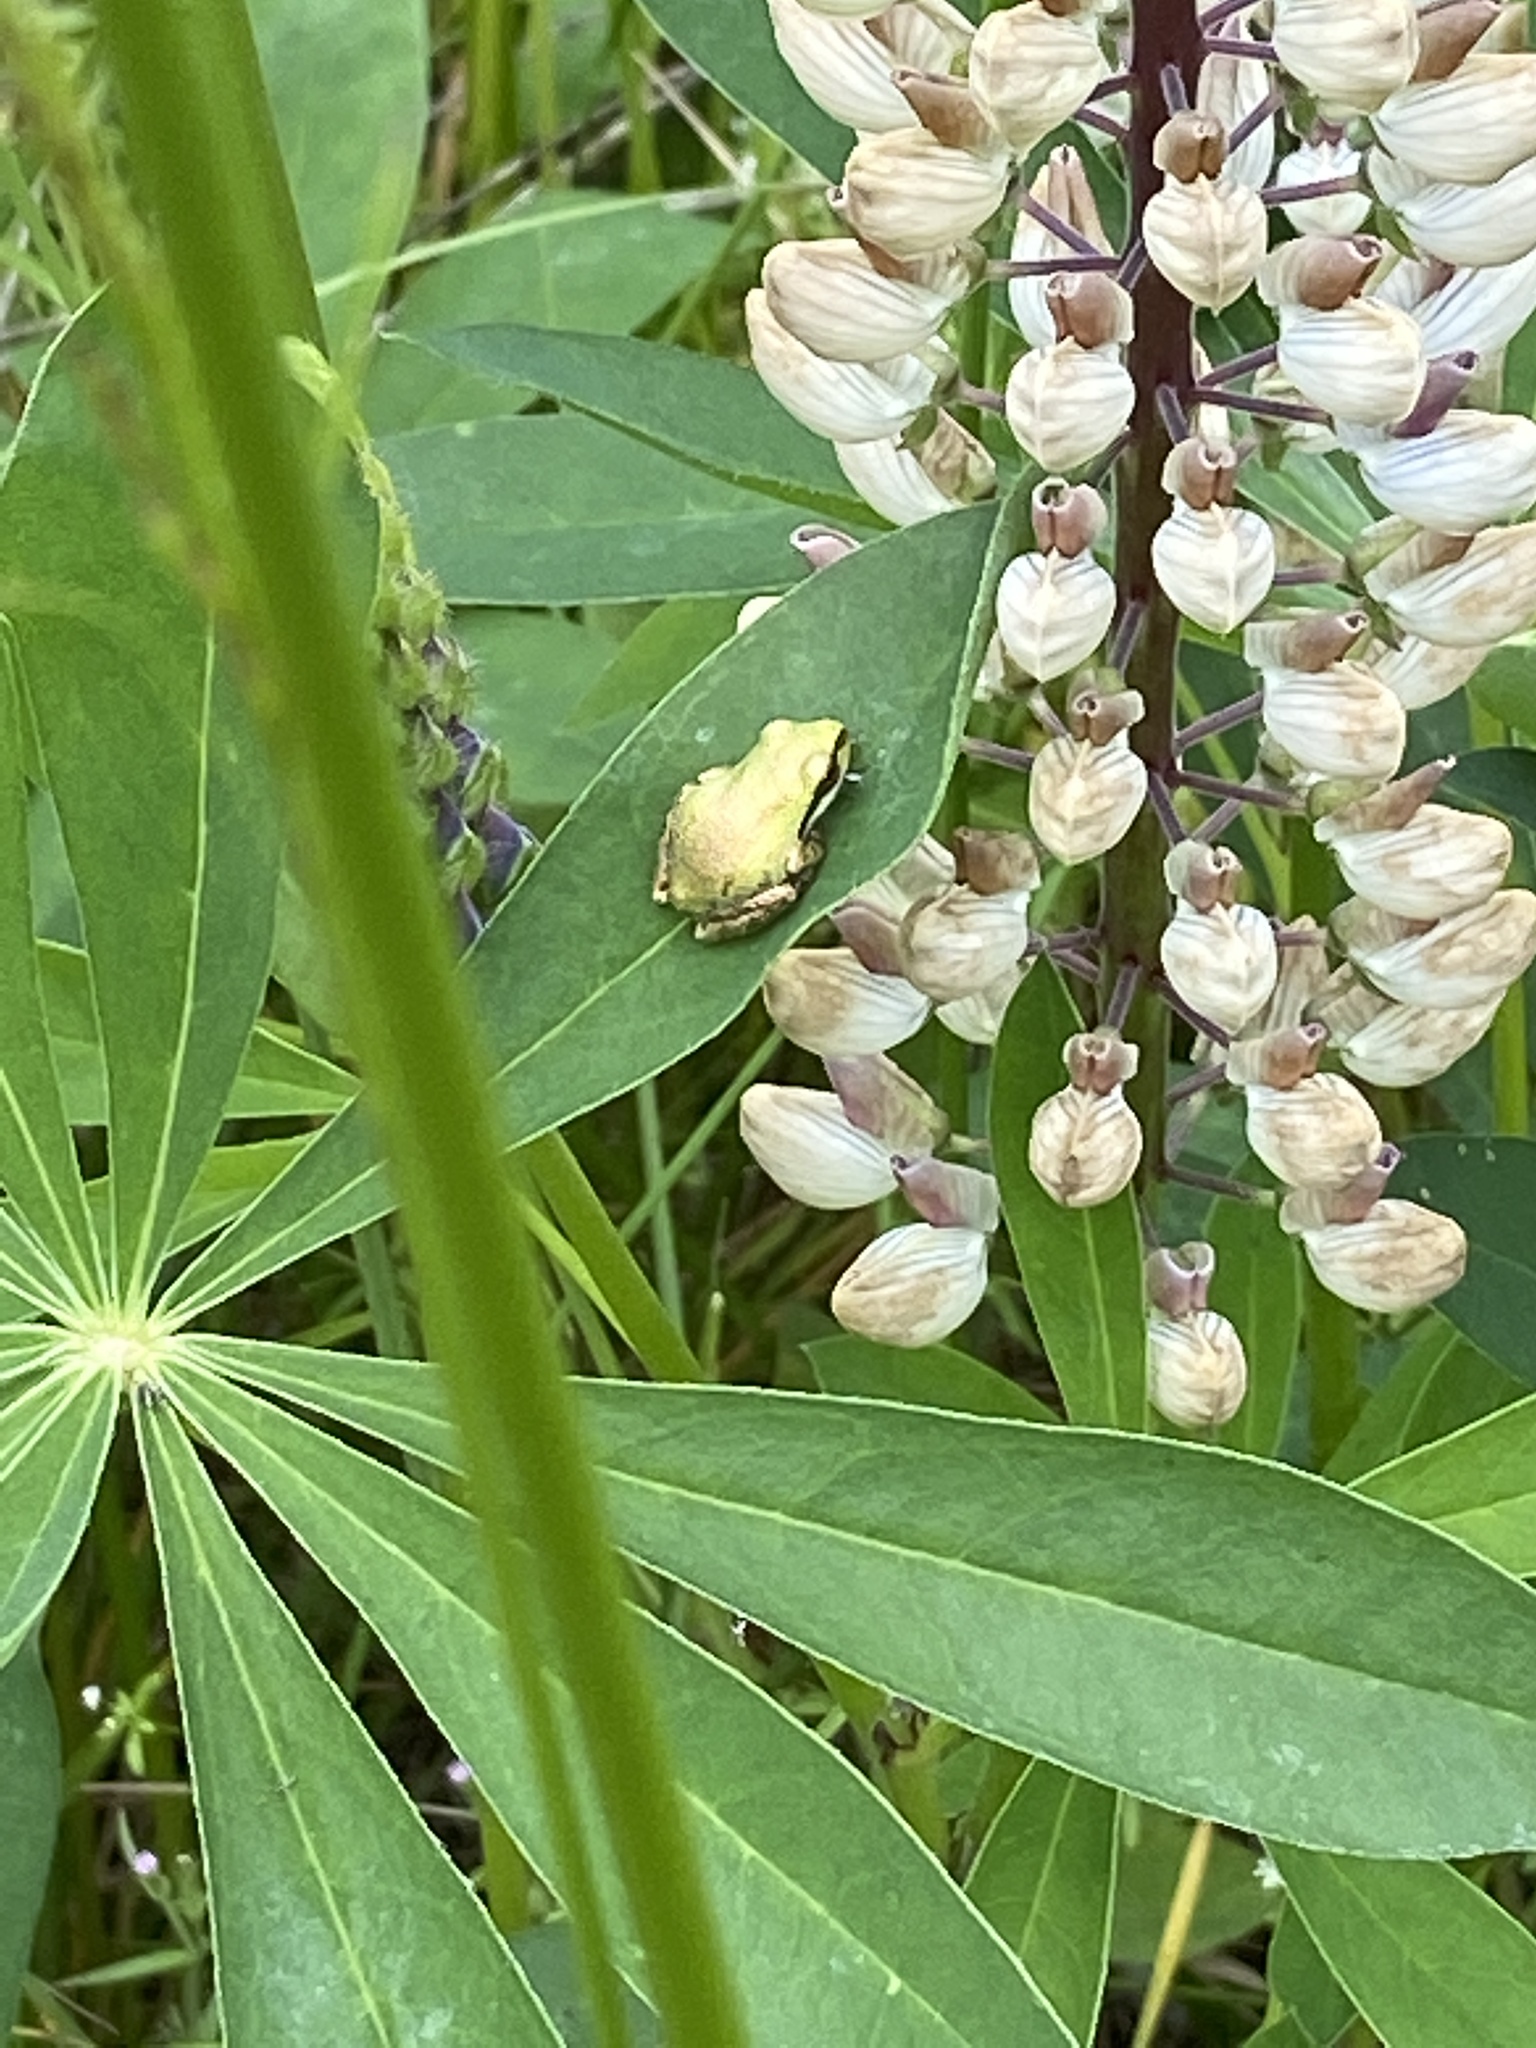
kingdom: Plantae
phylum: Tracheophyta
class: Magnoliopsida
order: Fabales
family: Fabaceae
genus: Lupinus
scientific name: Lupinus polyphyllus
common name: Garden lupin
